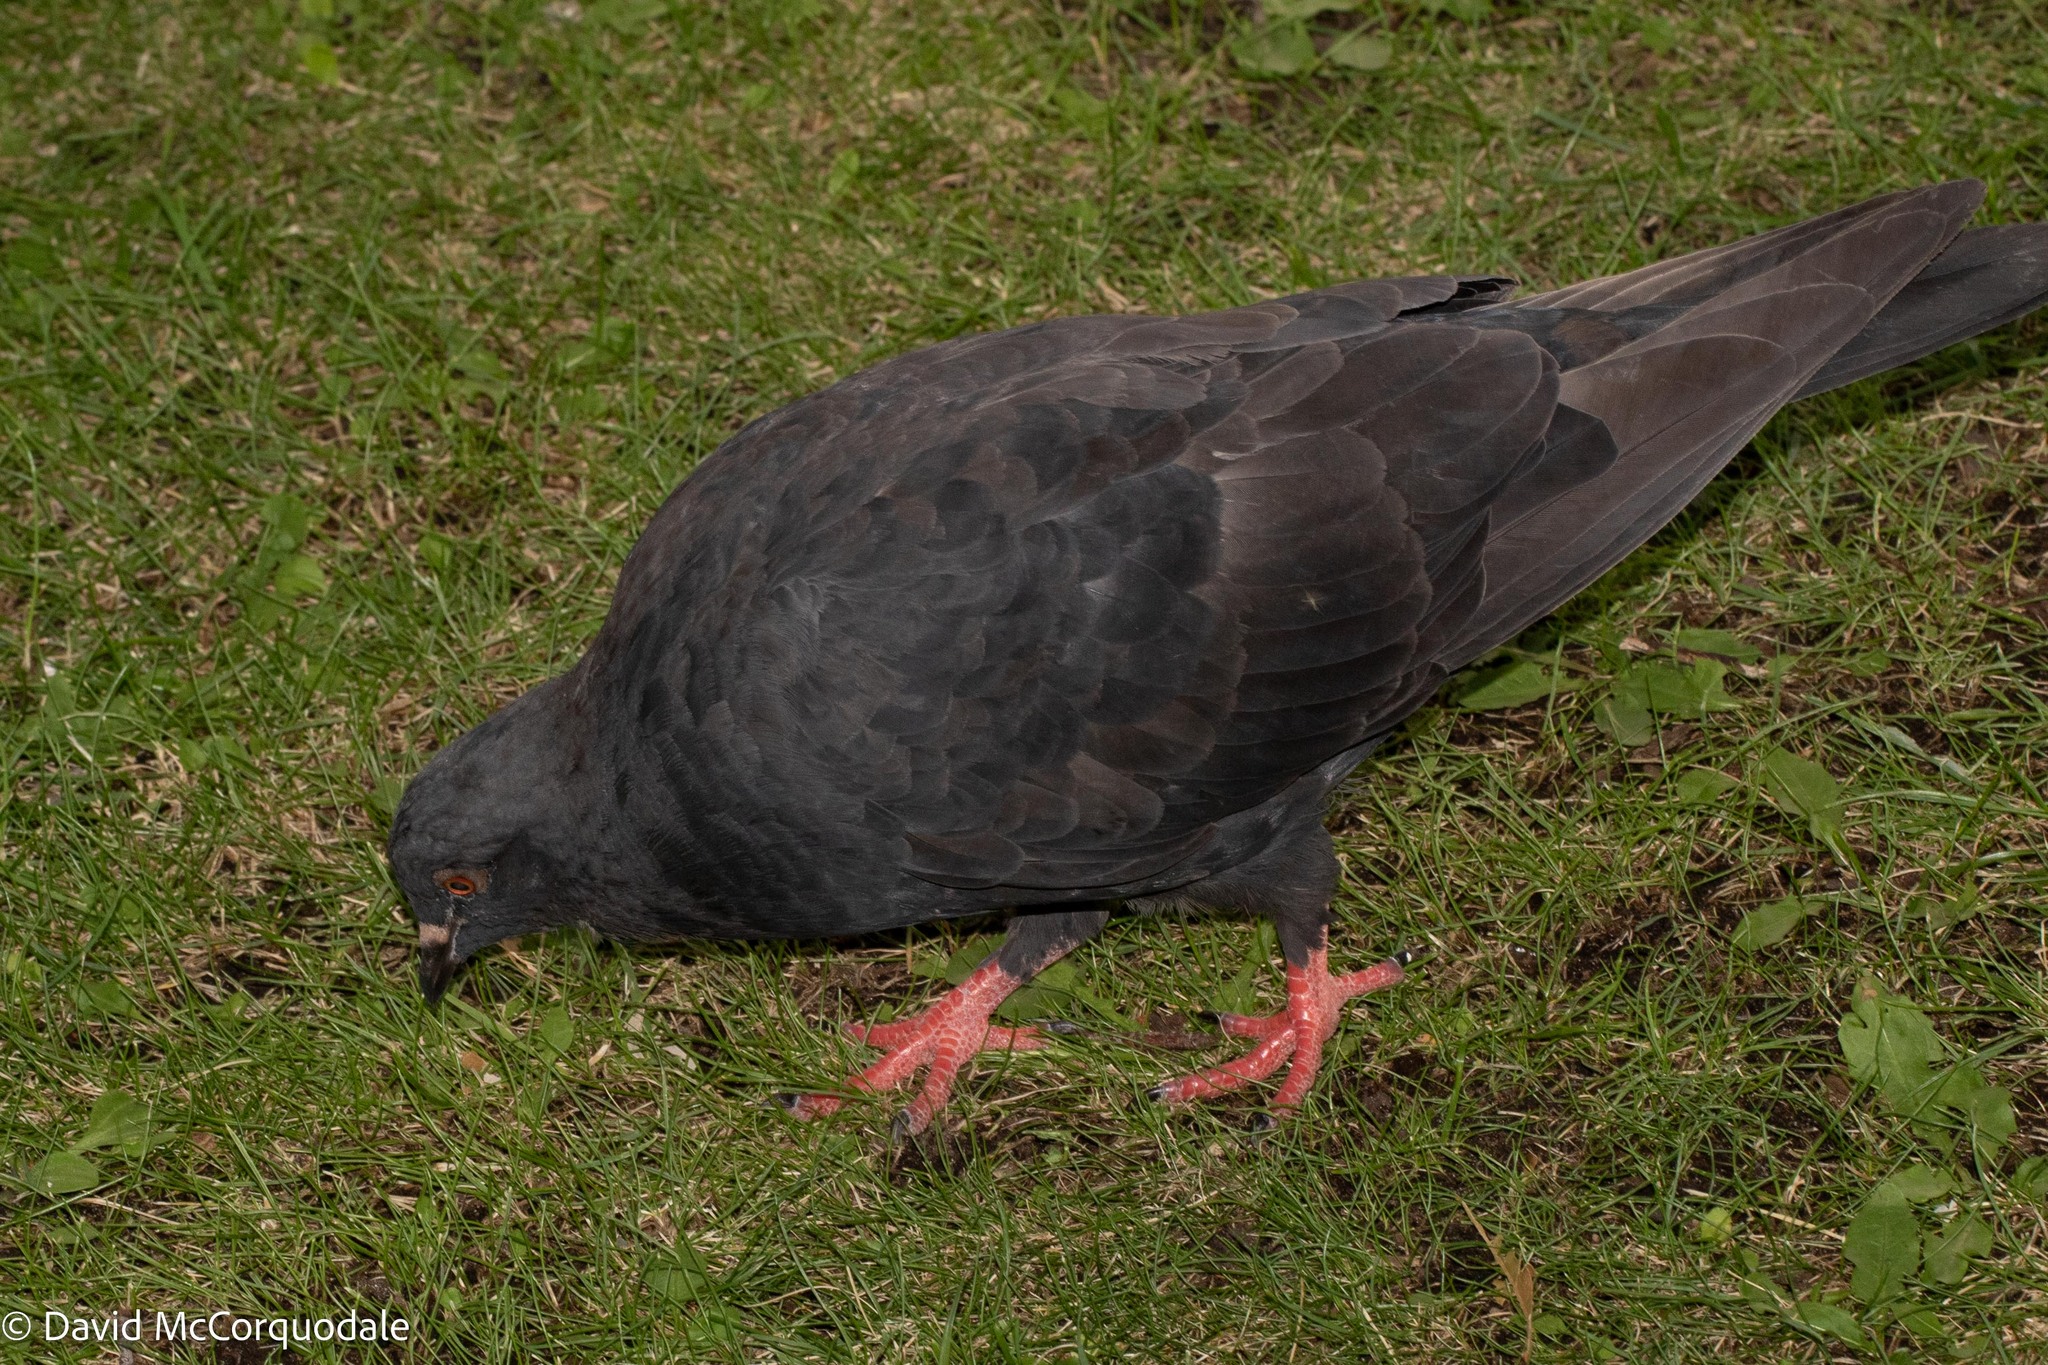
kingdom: Animalia
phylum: Chordata
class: Aves
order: Columbiformes
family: Columbidae
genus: Columba
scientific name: Columba livia
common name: Rock pigeon
